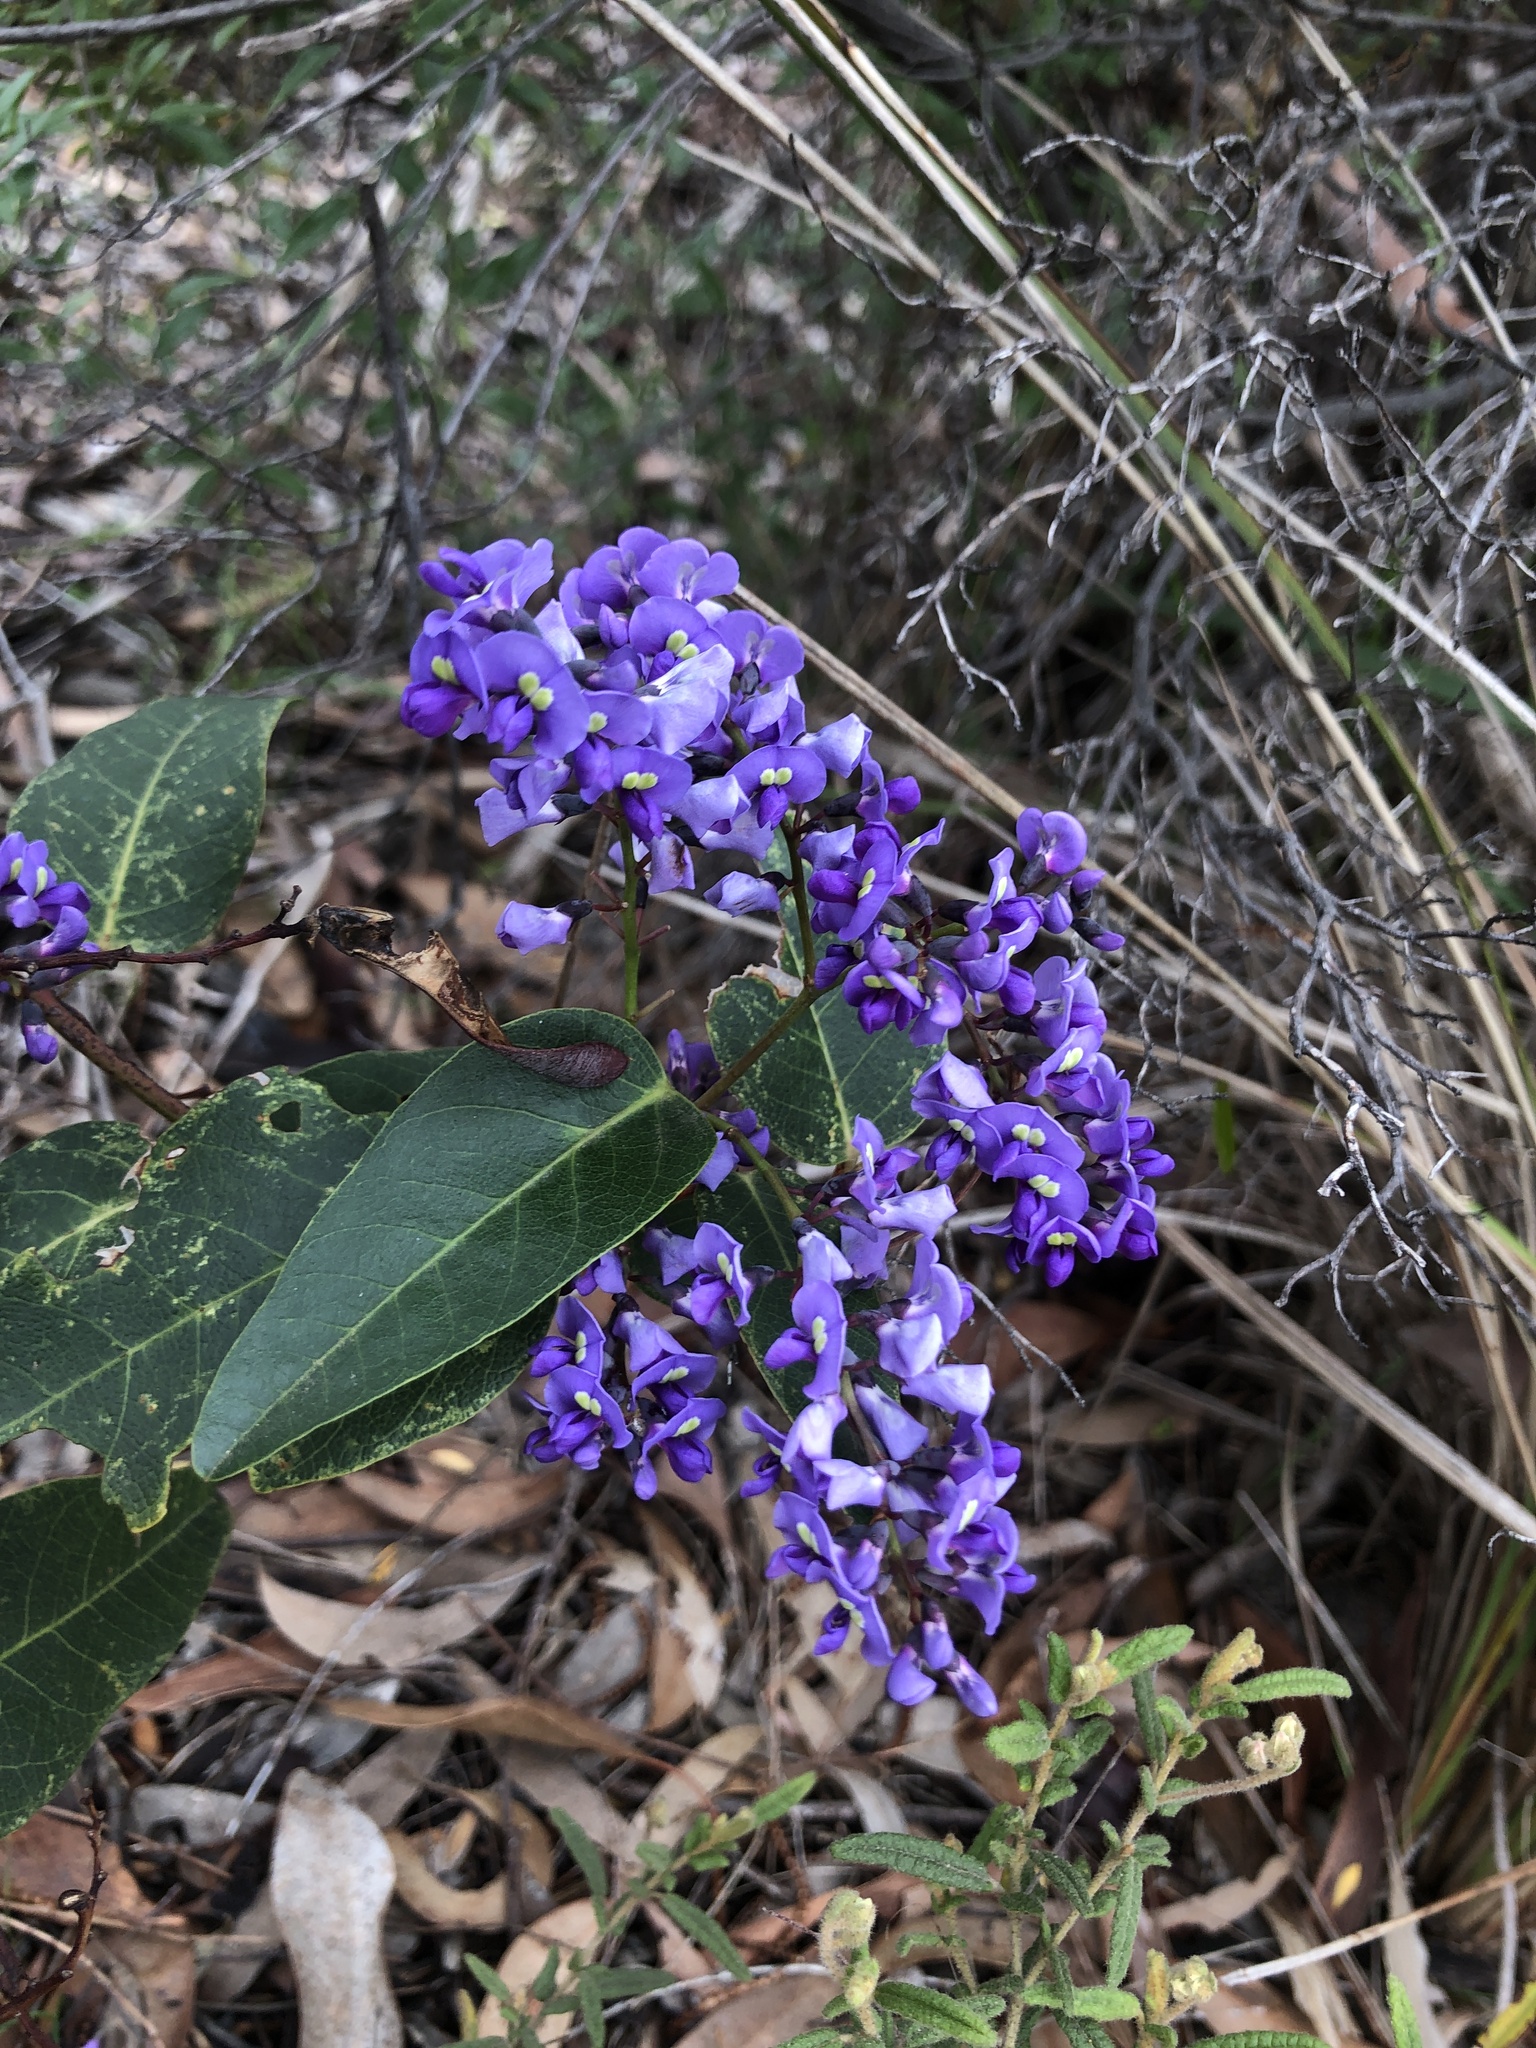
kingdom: Plantae
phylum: Tracheophyta
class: Magnoliopsida
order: Fabales
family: Fabaceae
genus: Hardenbergia
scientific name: Hardenbergia violacea
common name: Coral-pea
